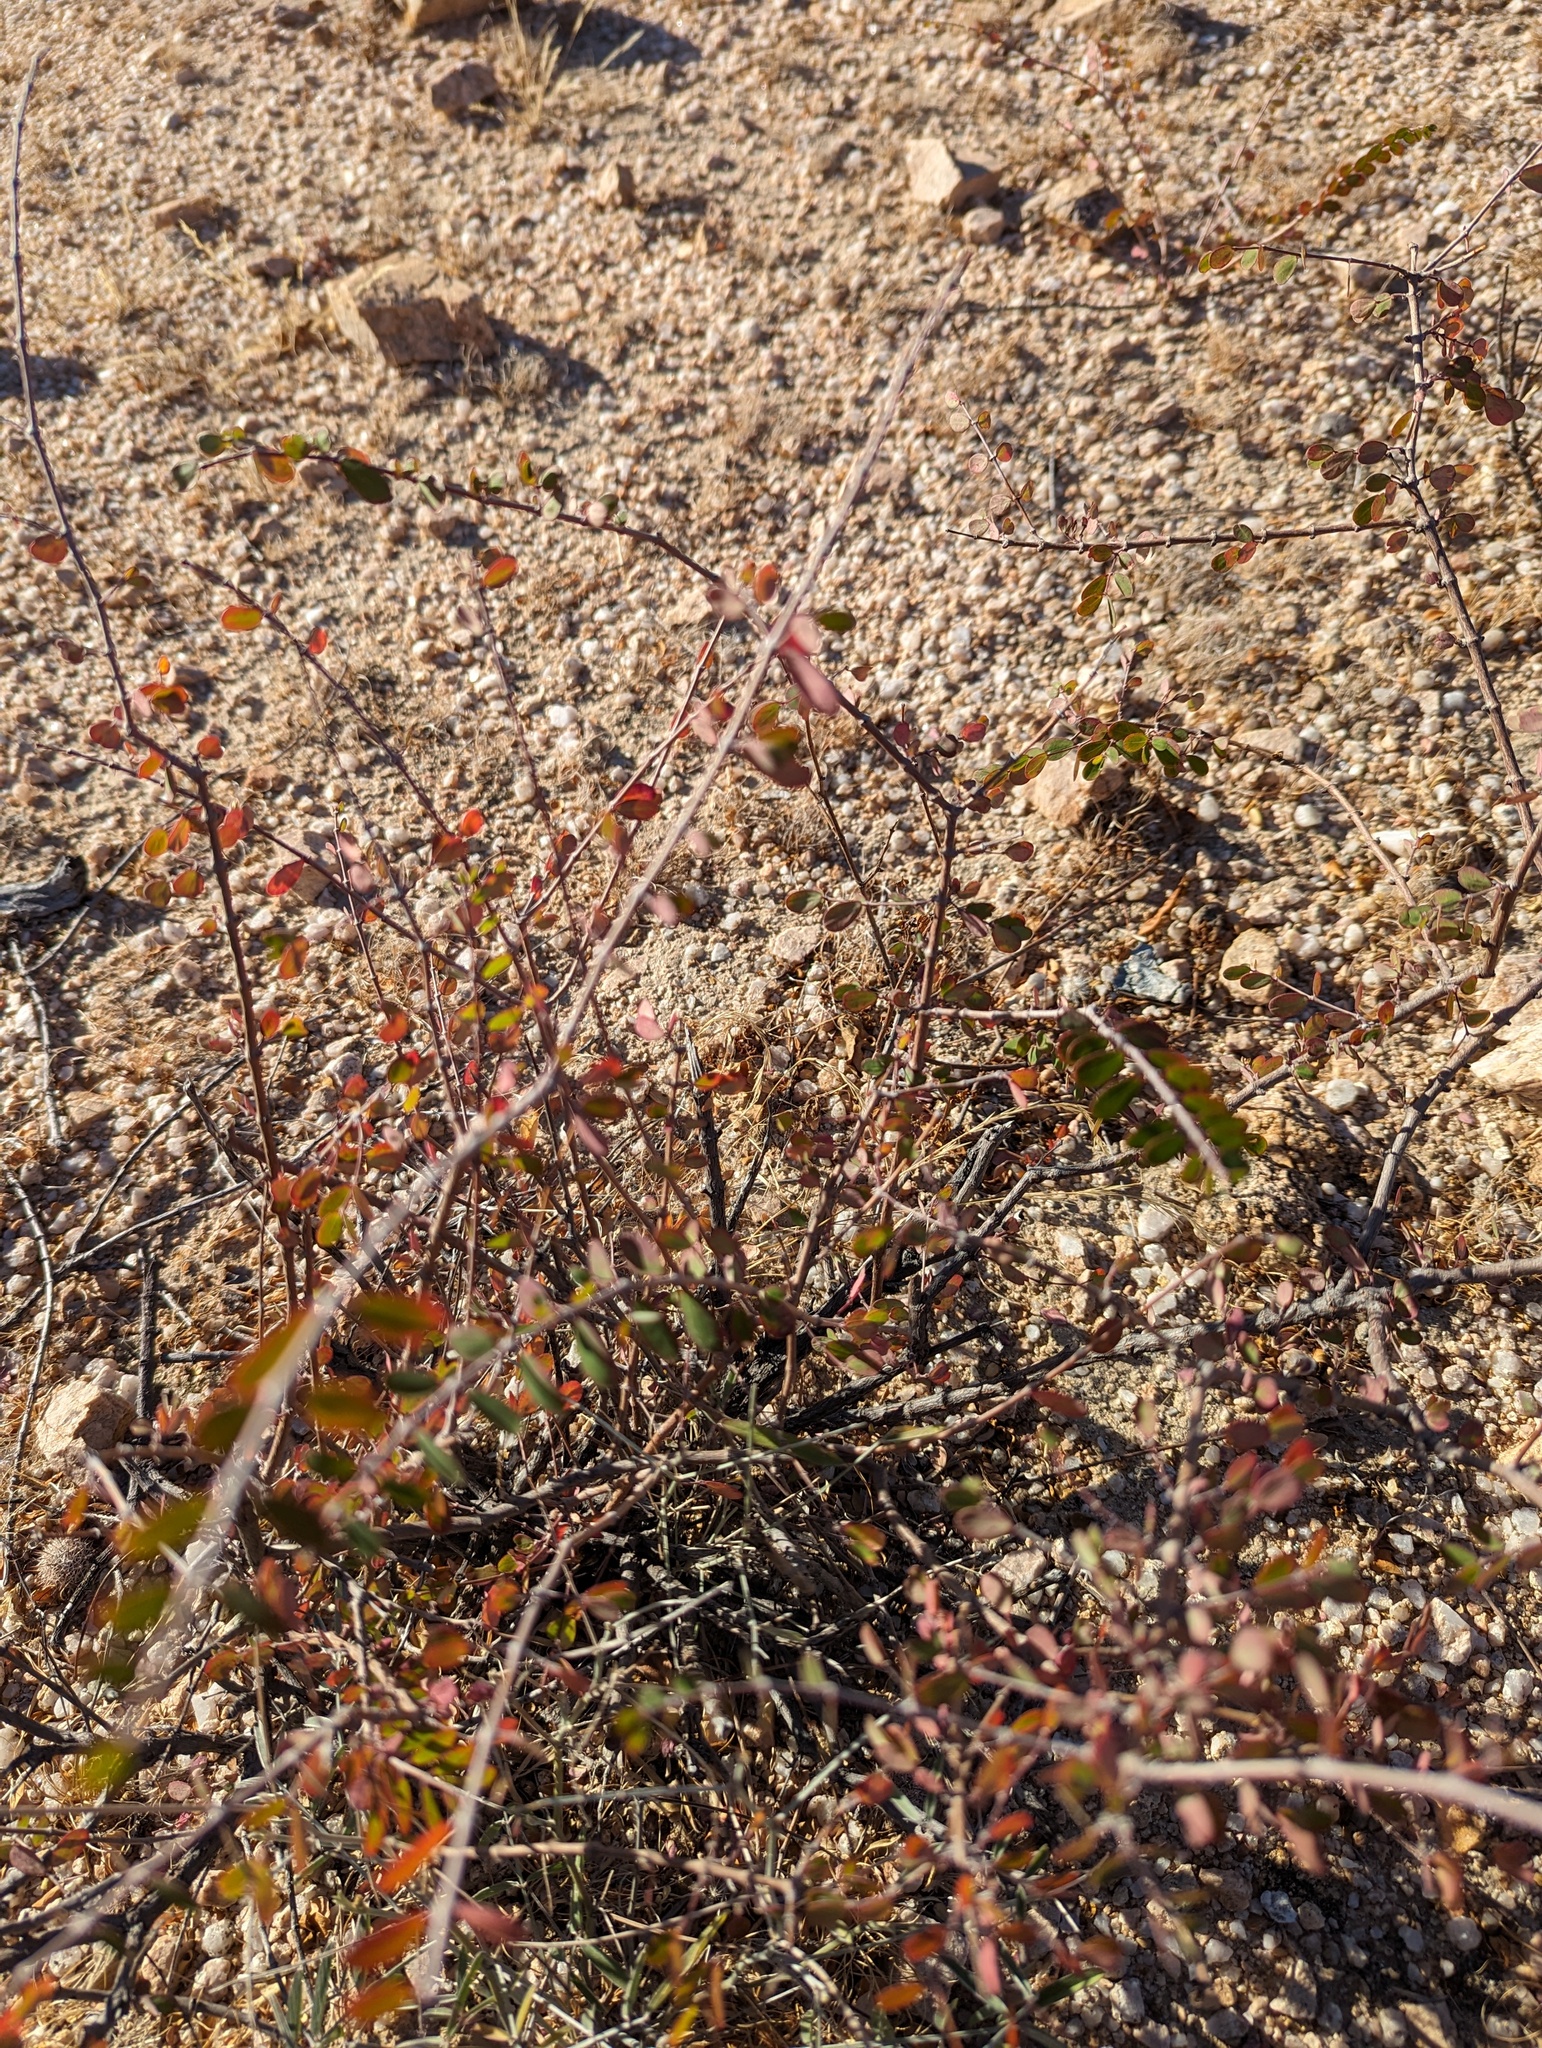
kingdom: Plantae
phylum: Tracheophyta
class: Magnoliopsida
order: Malpighiales
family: Euphorbiaceae
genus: Euphorbia
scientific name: Euphorbia magdalenae
